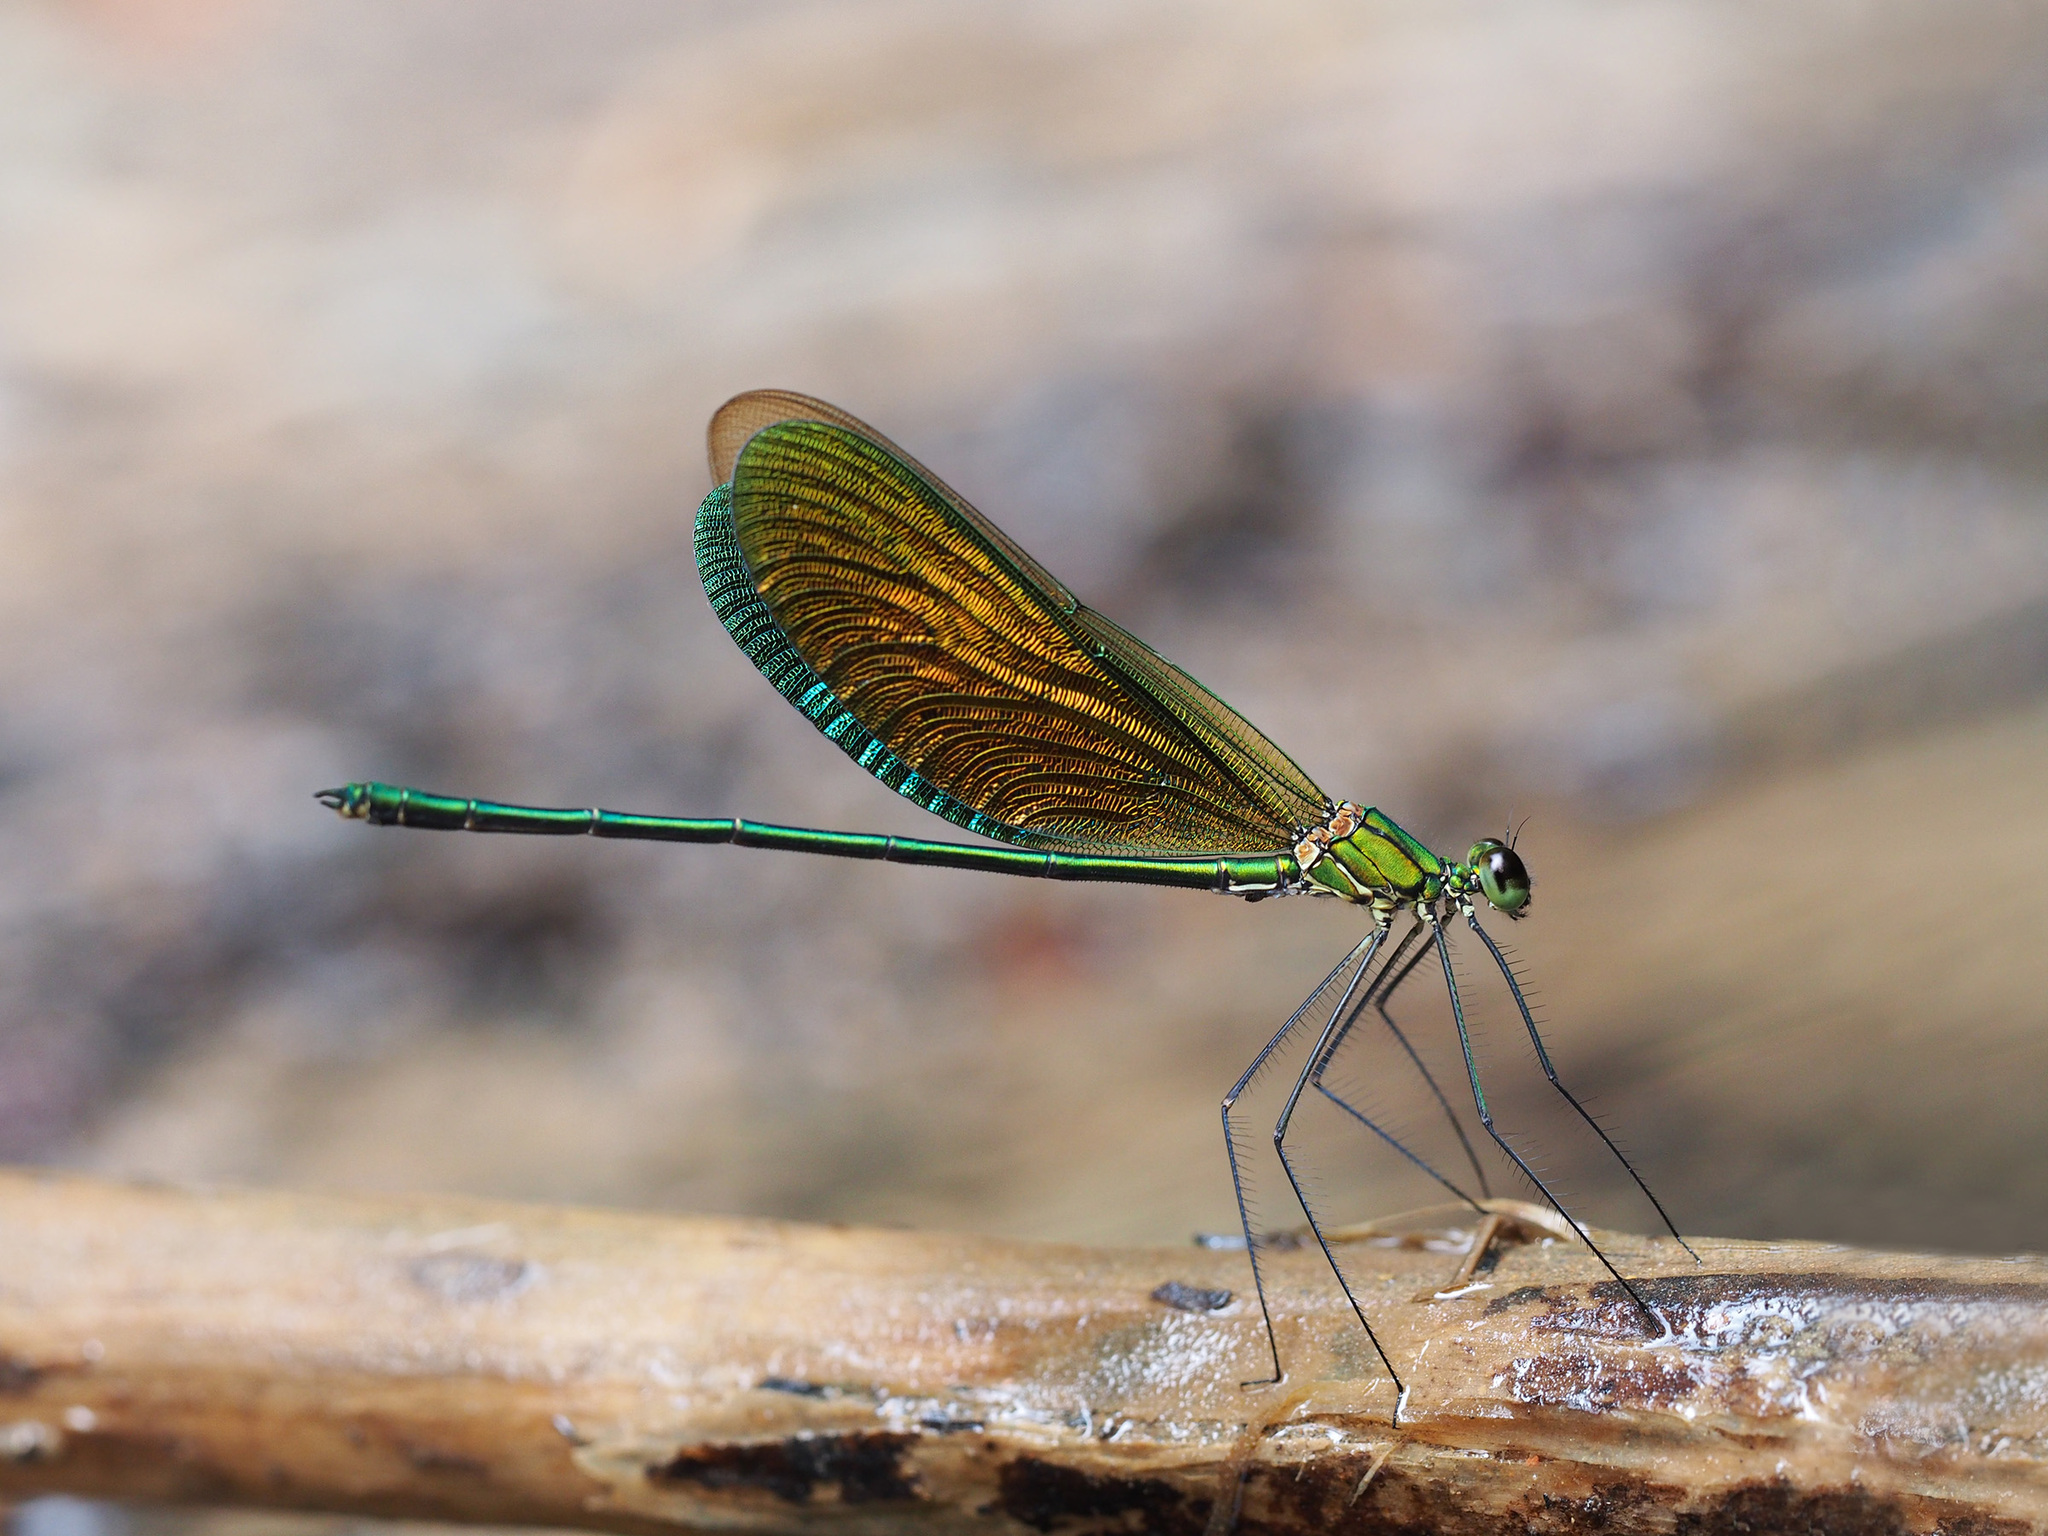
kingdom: Animalia
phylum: Arthropoda
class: Insecta
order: Odonata
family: Calopterygidae
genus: Neurobasis
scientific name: Neurobasis longipes
